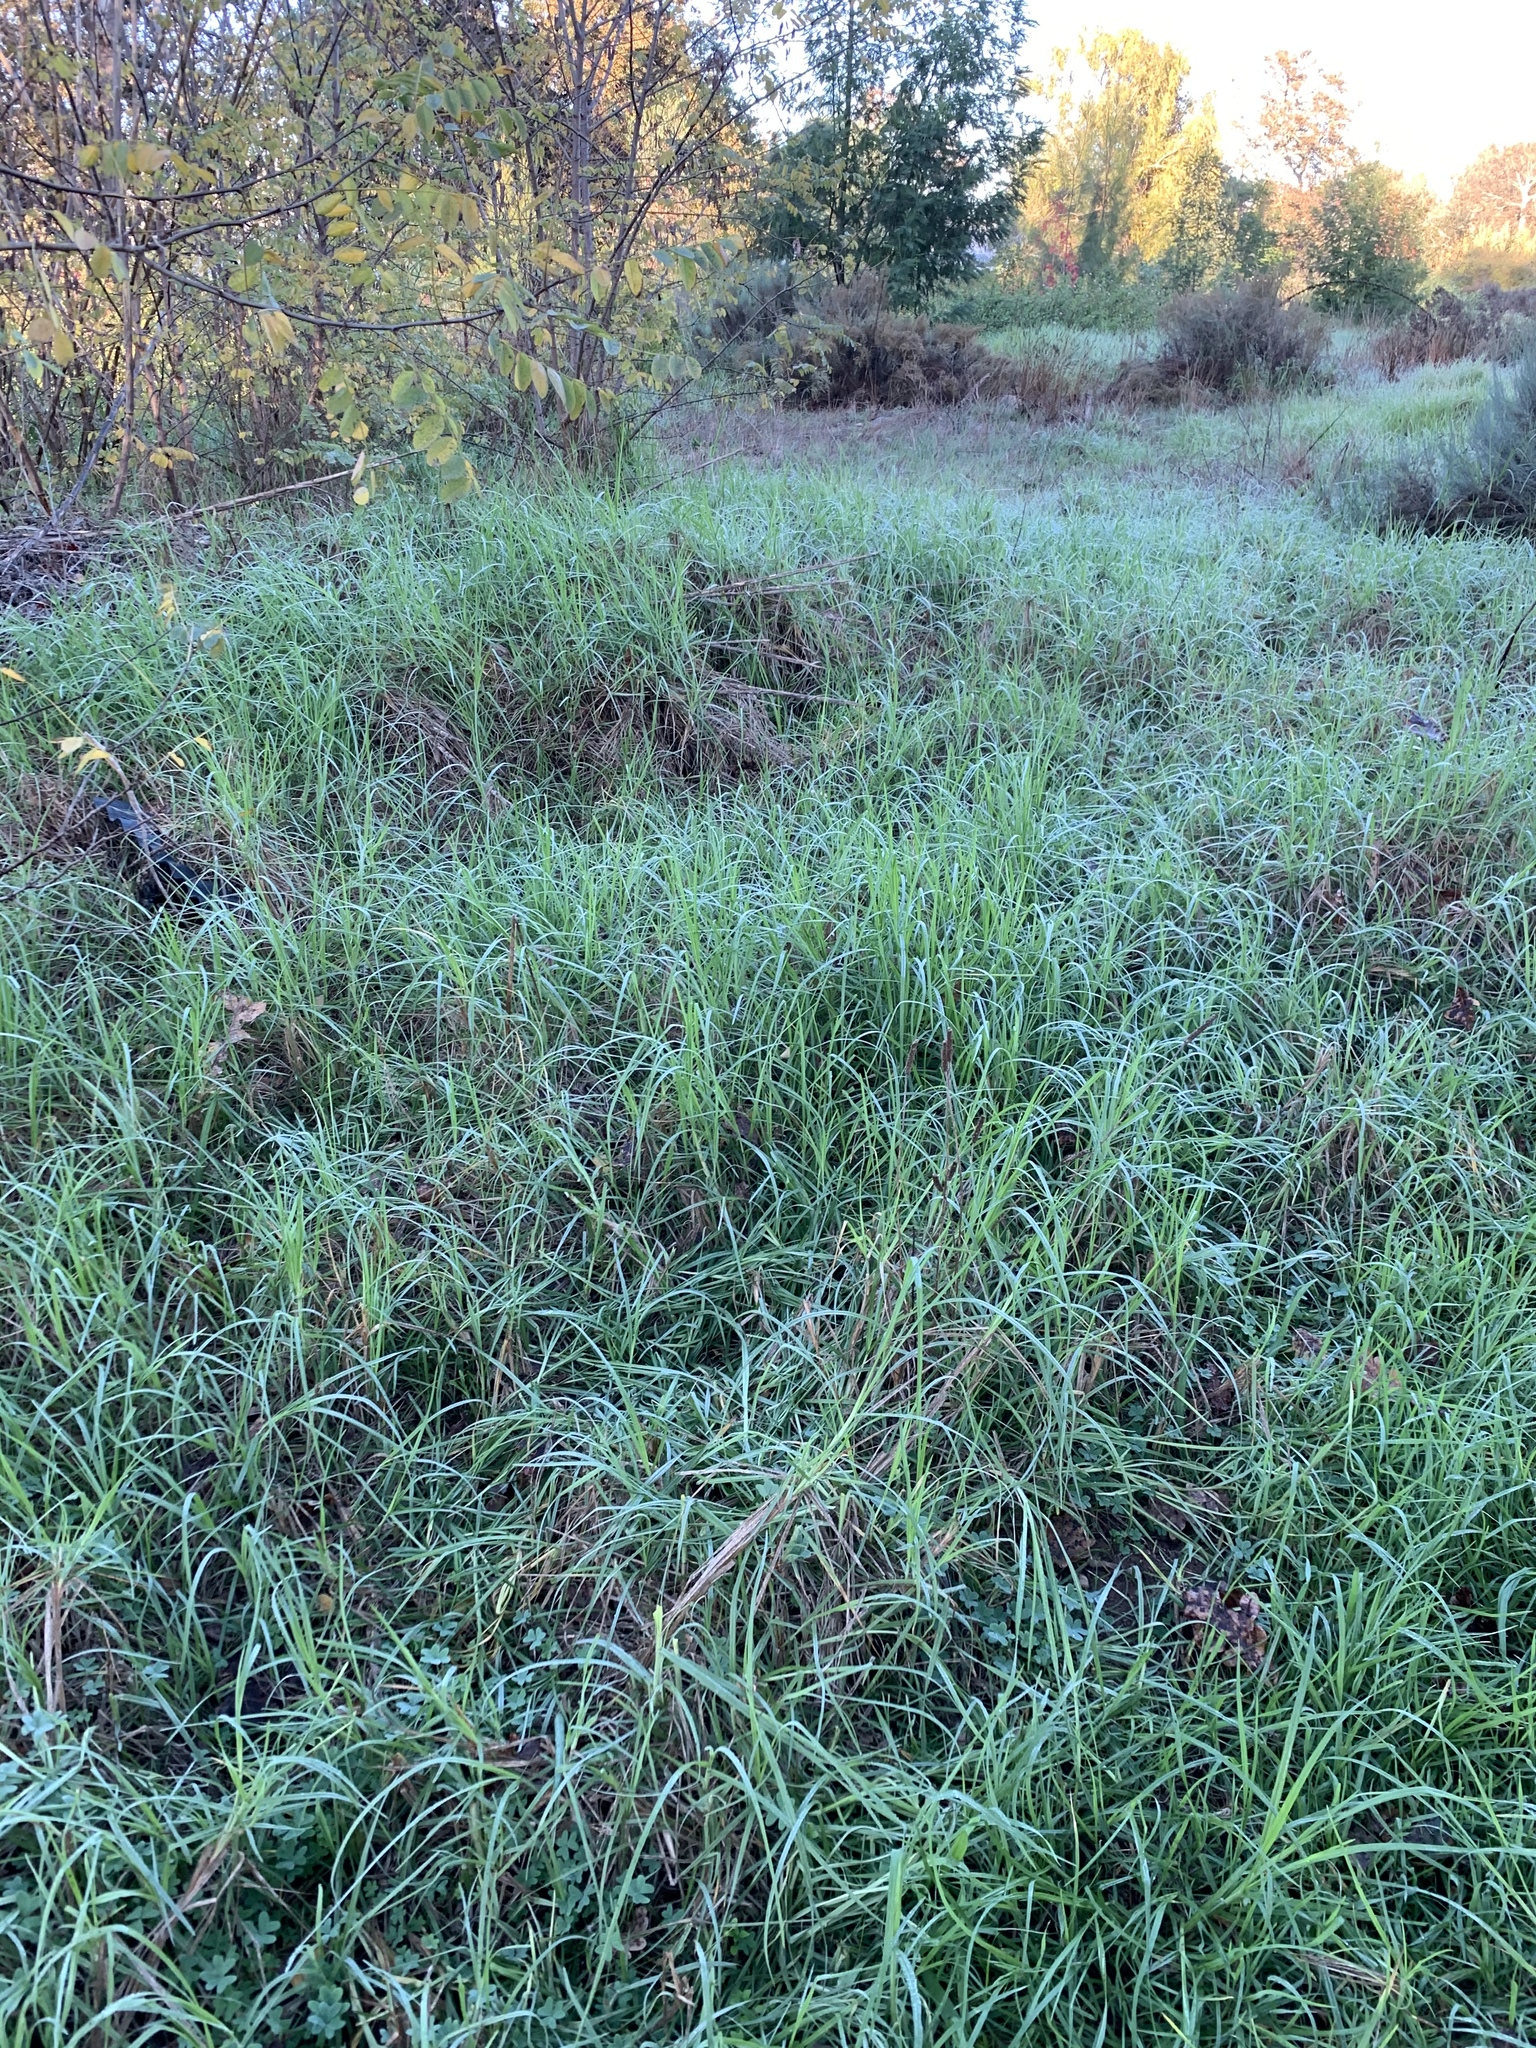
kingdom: Plantae
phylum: Tracheophyta
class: Liliopsida
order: Poales
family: Poaceae
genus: Cenchrus
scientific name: Cenchrus clandestinus
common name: Kikuyugrass
